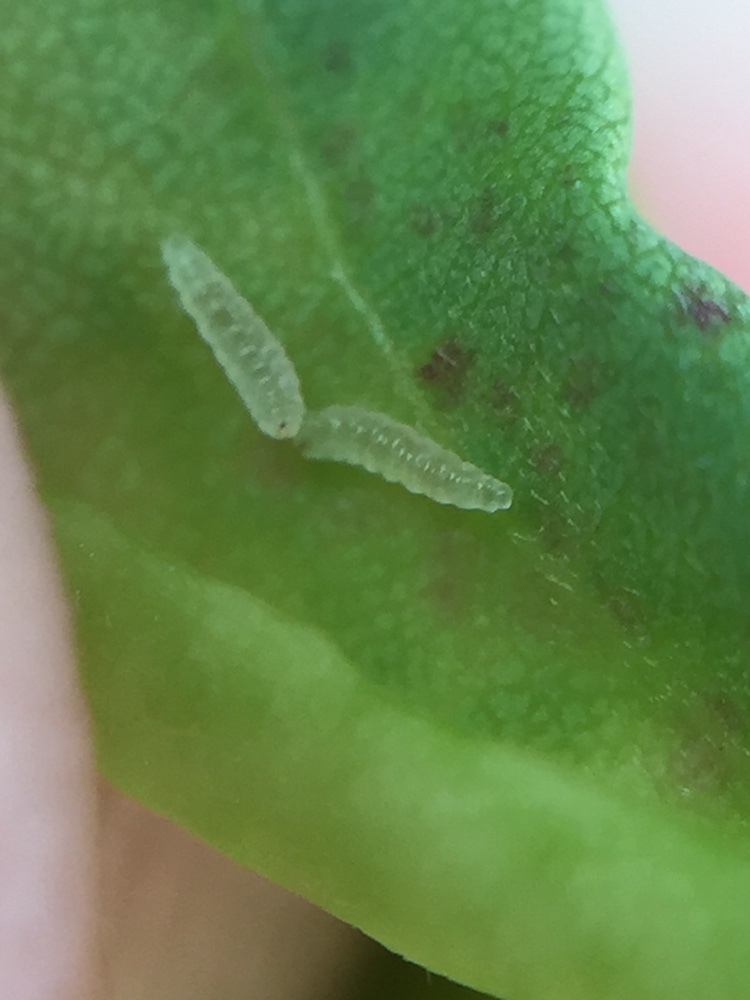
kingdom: Animalia
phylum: Arthropoda
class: Insecta
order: Diptera
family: Cecidomyiidae
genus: Obolodiplosis
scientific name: Obolodiplosis robiniae
